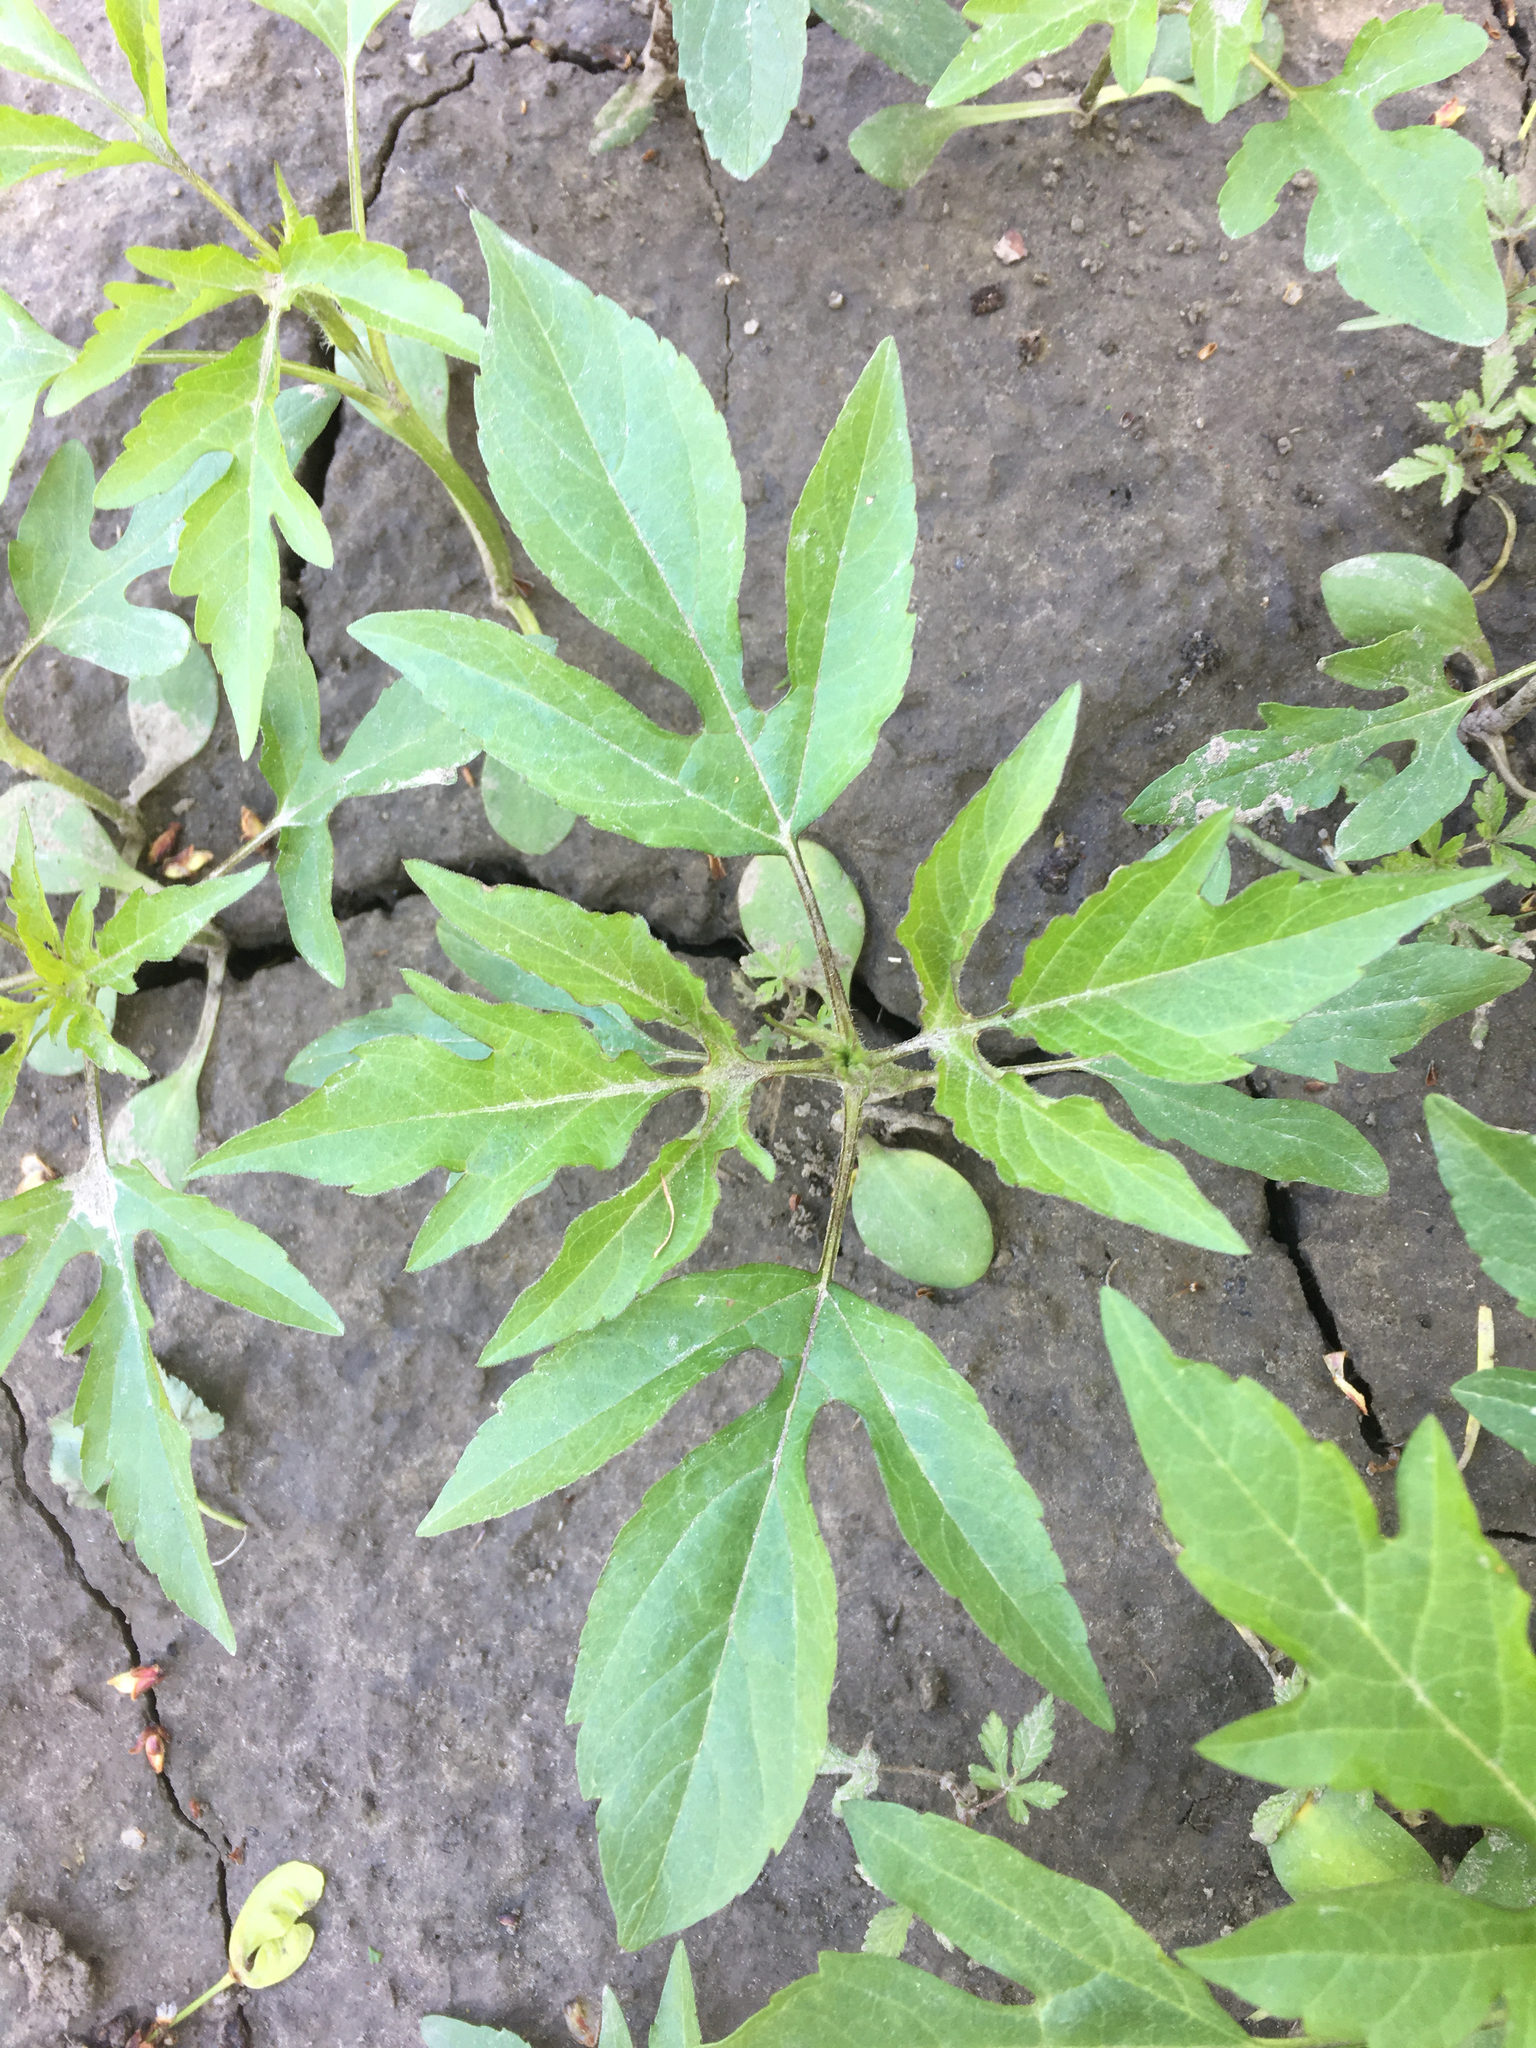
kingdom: Plantae
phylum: Tracheophyta
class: Magnoliopsida
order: Asterales
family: Asteraceae
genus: Ambrosia
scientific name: Ambrosia trifida
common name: Giant ragweed
